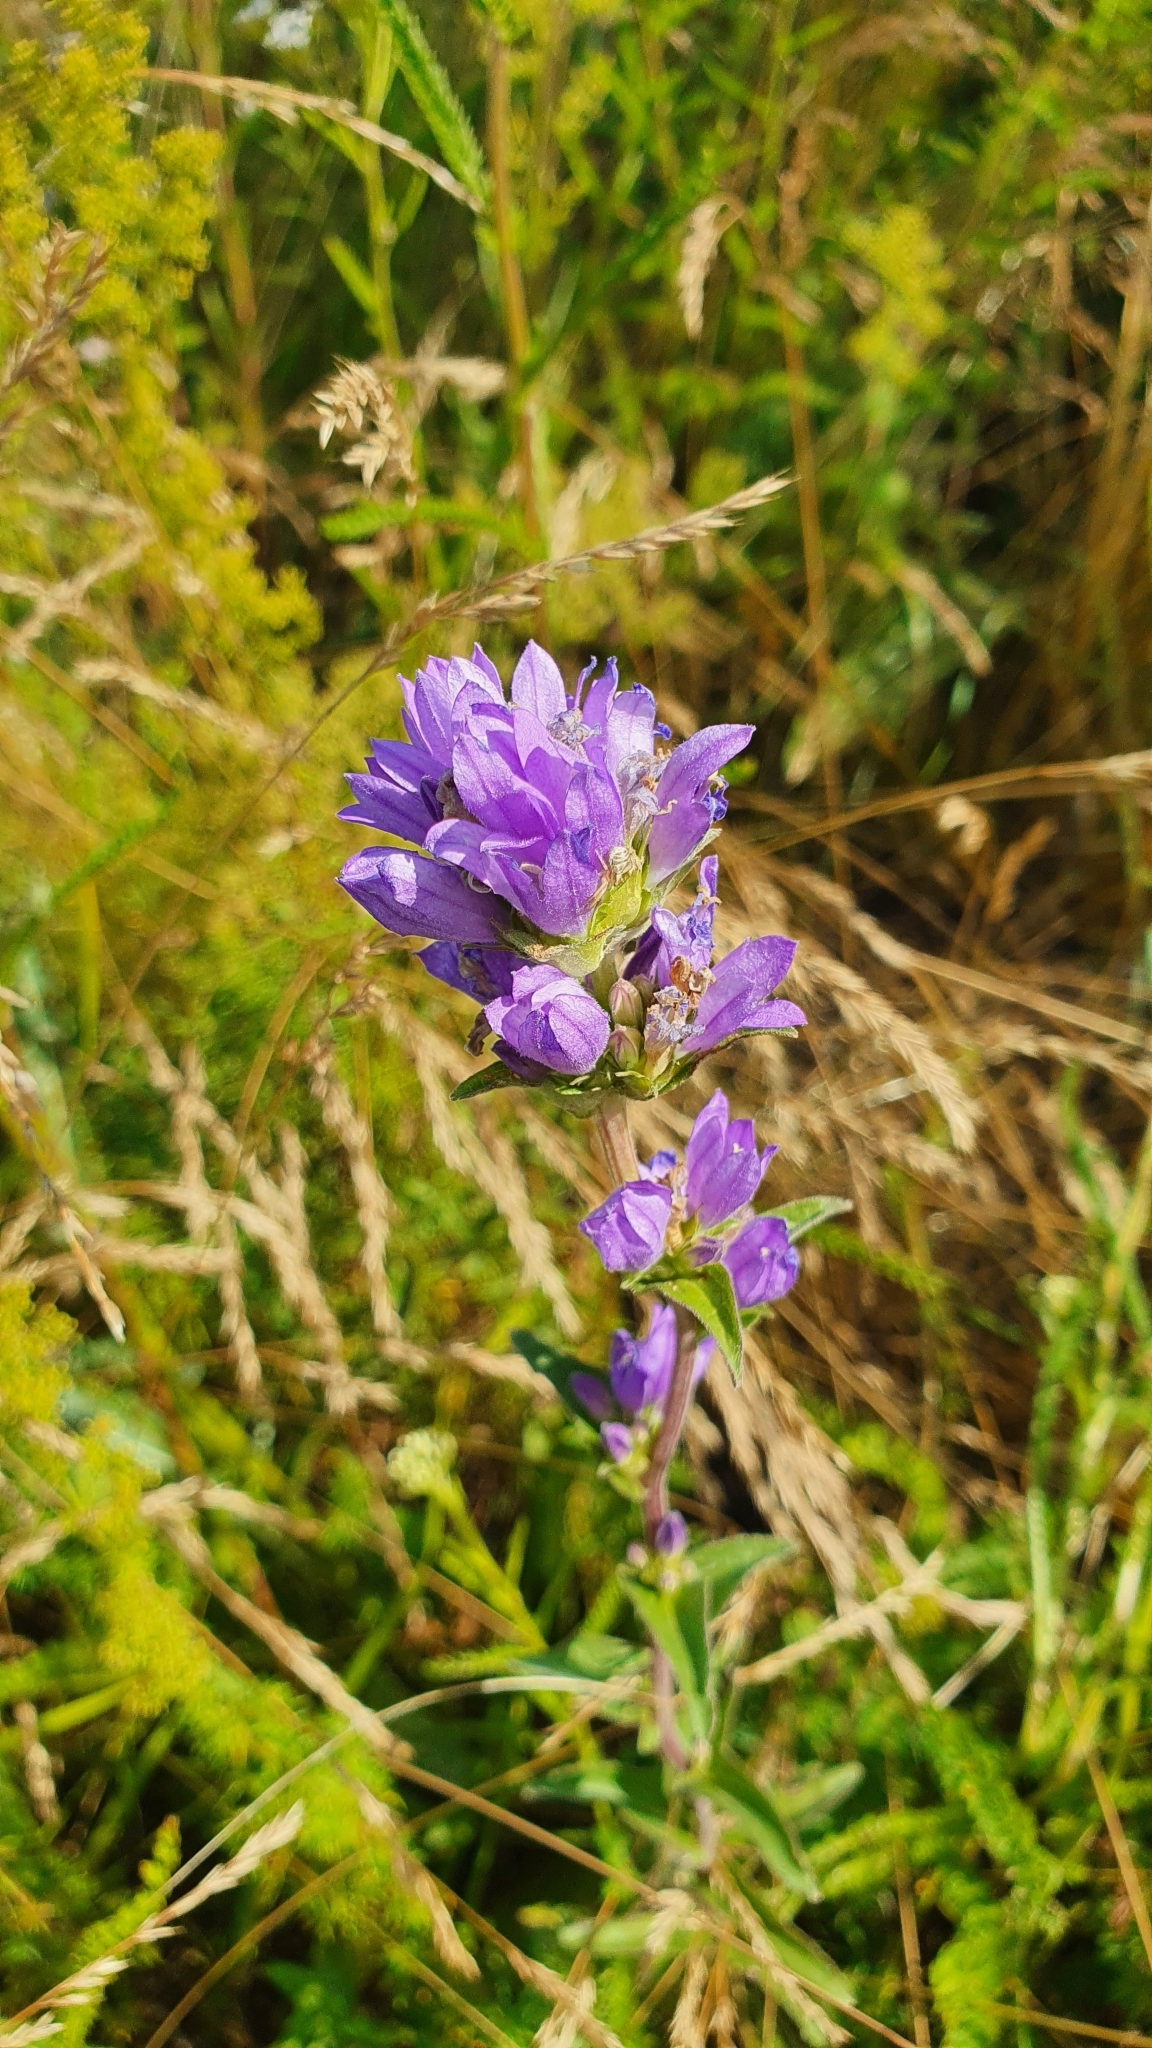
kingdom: Plantae
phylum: Tracheophyta
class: Magnoliopsida
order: Asterales
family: Campanulaceae
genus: Campanula
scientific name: Campanula glomerata
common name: Clustered bellflower
